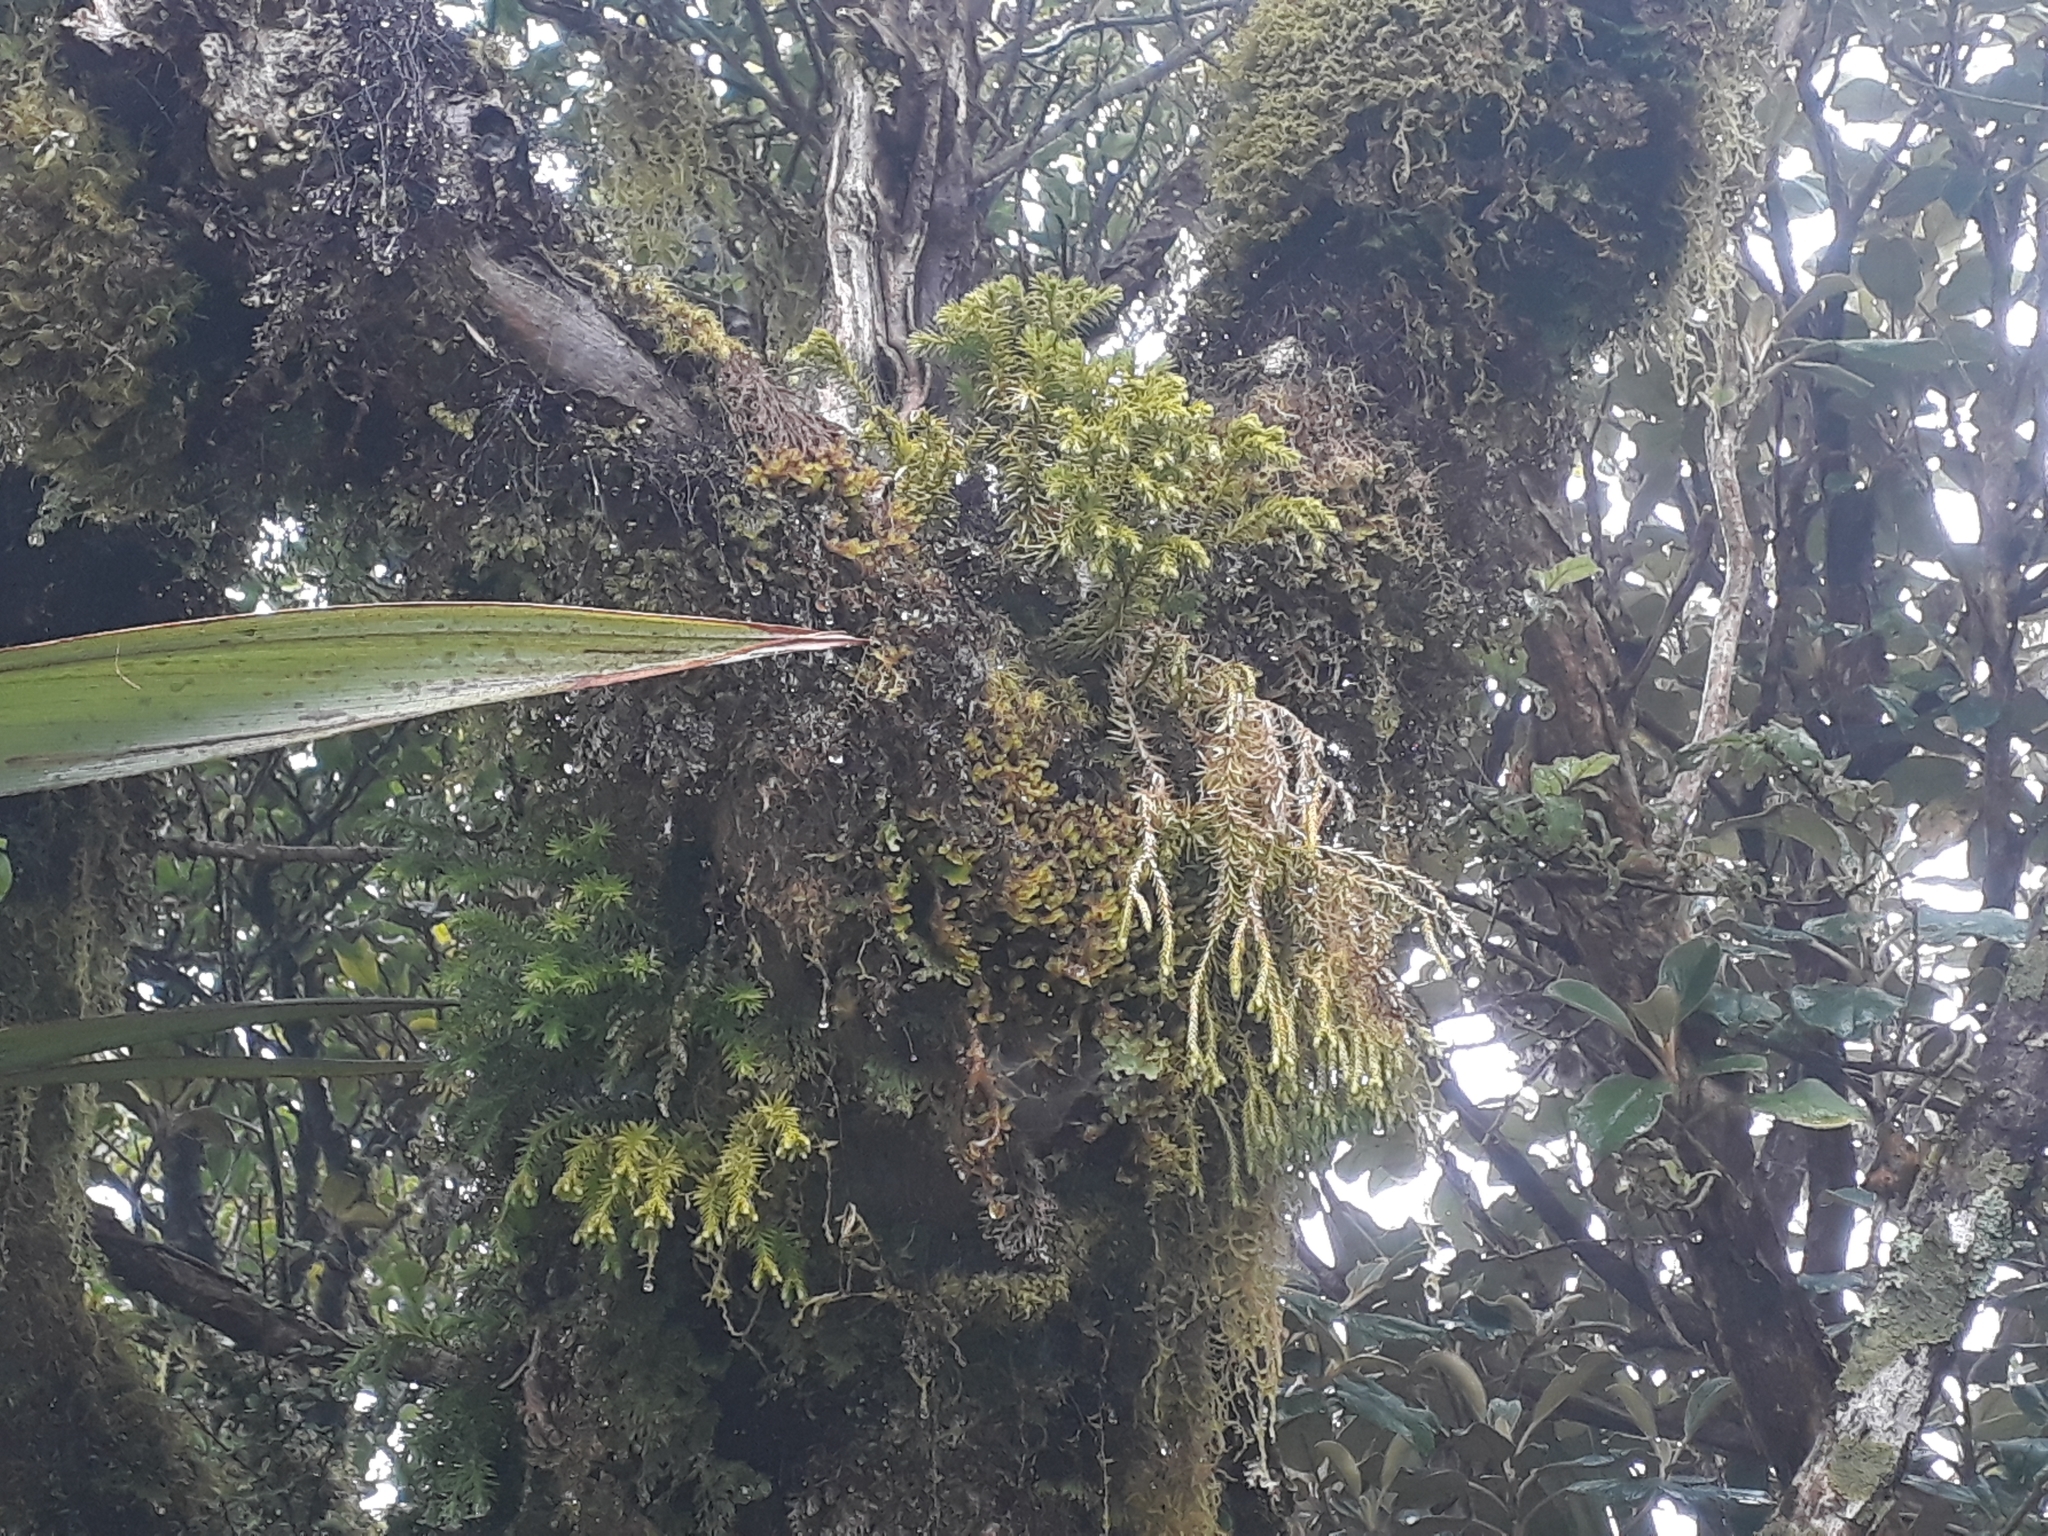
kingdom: Plantae
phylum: Tracheophyta
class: Lycopodiopsida
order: Lycopodiales
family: Lycopodiaceae
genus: Phlegmariurus
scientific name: Phlegmariurus varius
